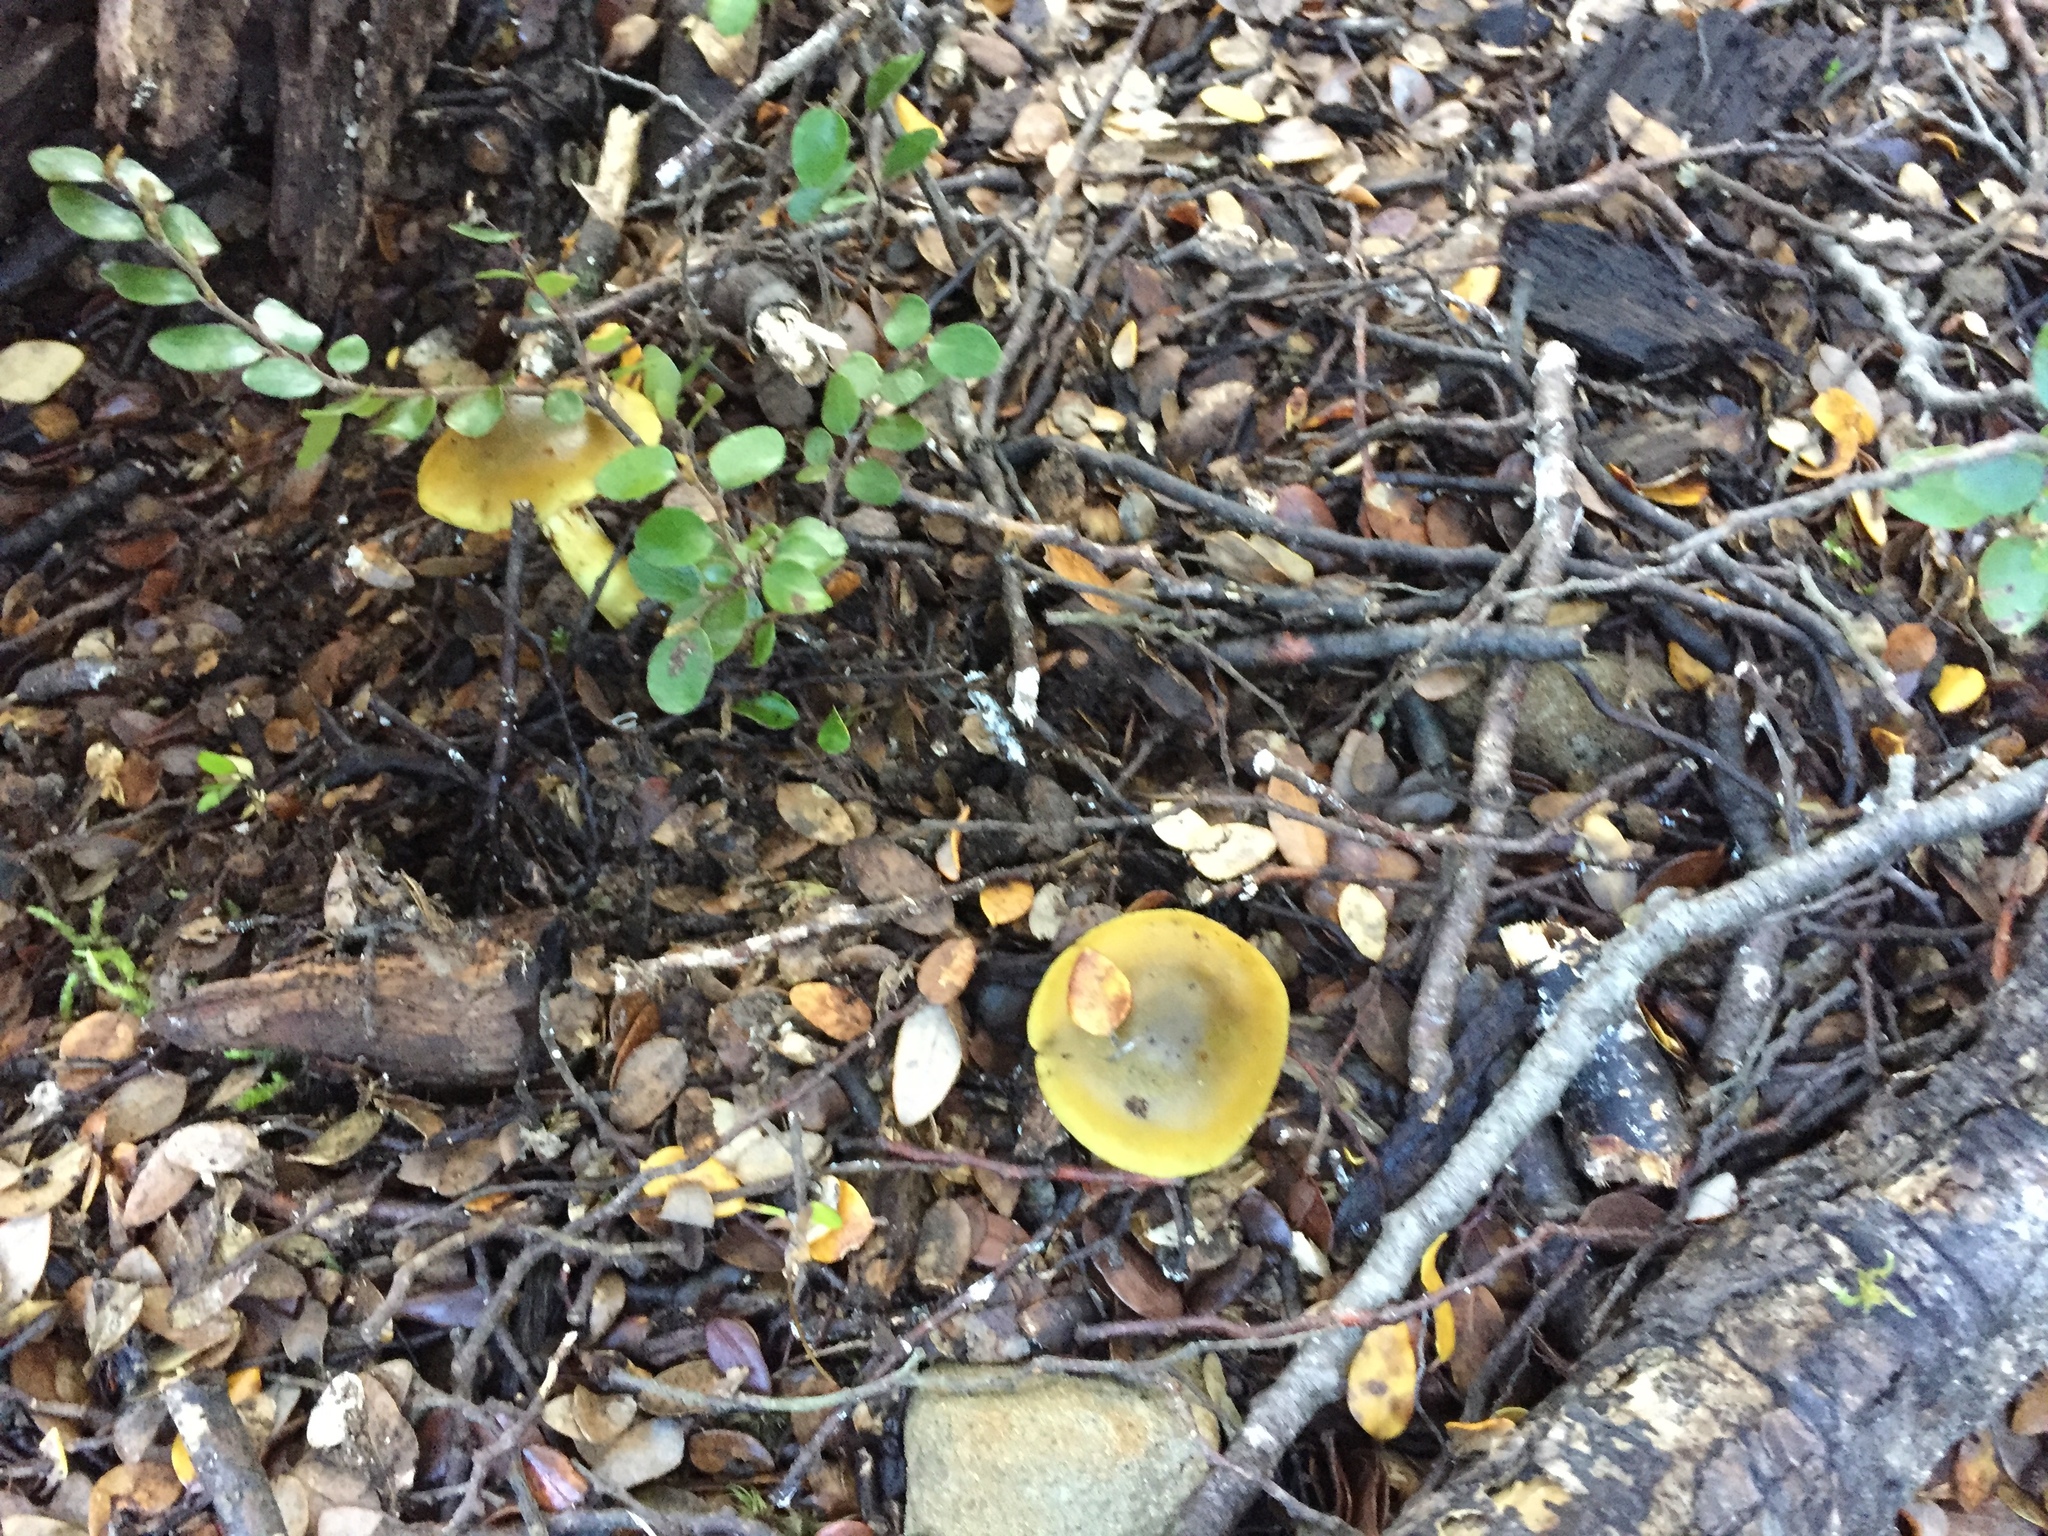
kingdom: Fungi
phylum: Basidiomycota
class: Agaricomycetes
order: Agaricales
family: Cortinariaceae
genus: Cortinarius
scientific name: Cortinarius alienatus
